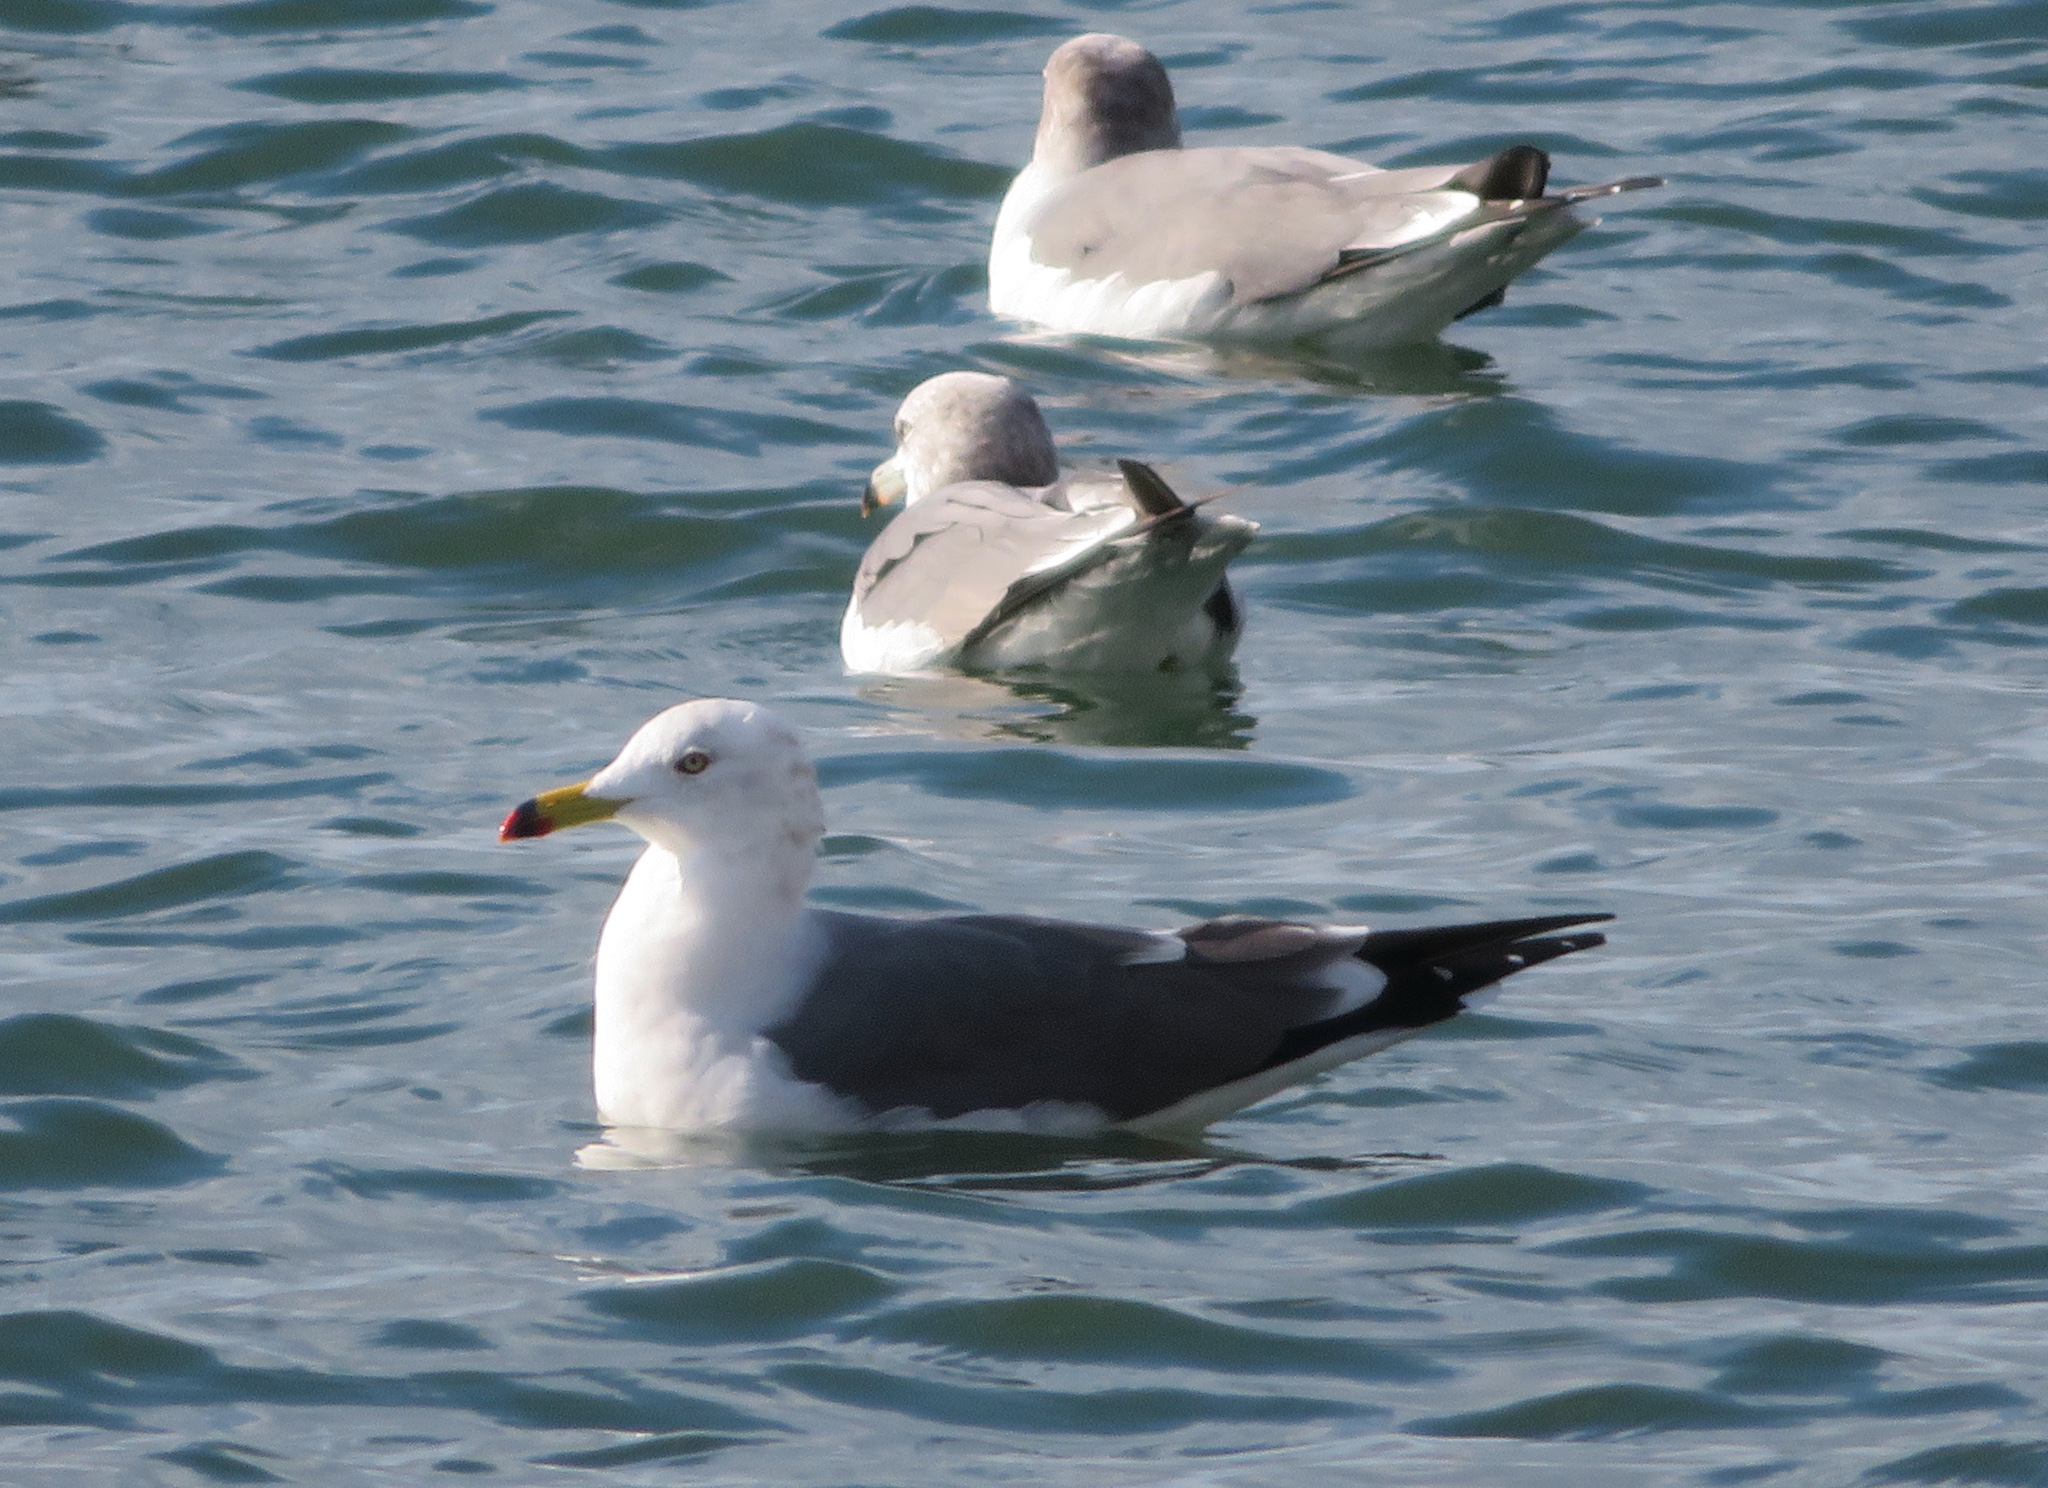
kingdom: Animalia
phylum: Chordata
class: Aves
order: Charadriiformes
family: Laridae
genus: Larus
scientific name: Larus crassirostris
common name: Black-tailed gull
